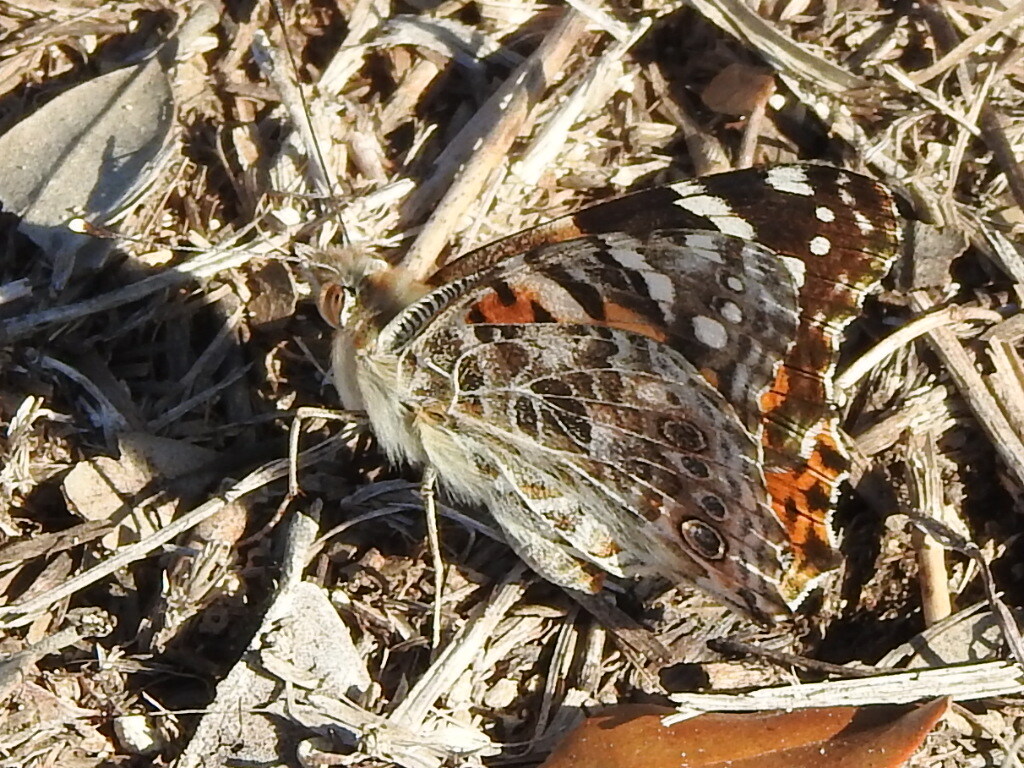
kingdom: Animalia
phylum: Arthropoda
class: Insecta
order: Lepidoptera
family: Nymphalidae
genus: Vanessa
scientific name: Vanessa cardui
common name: Painted lady
